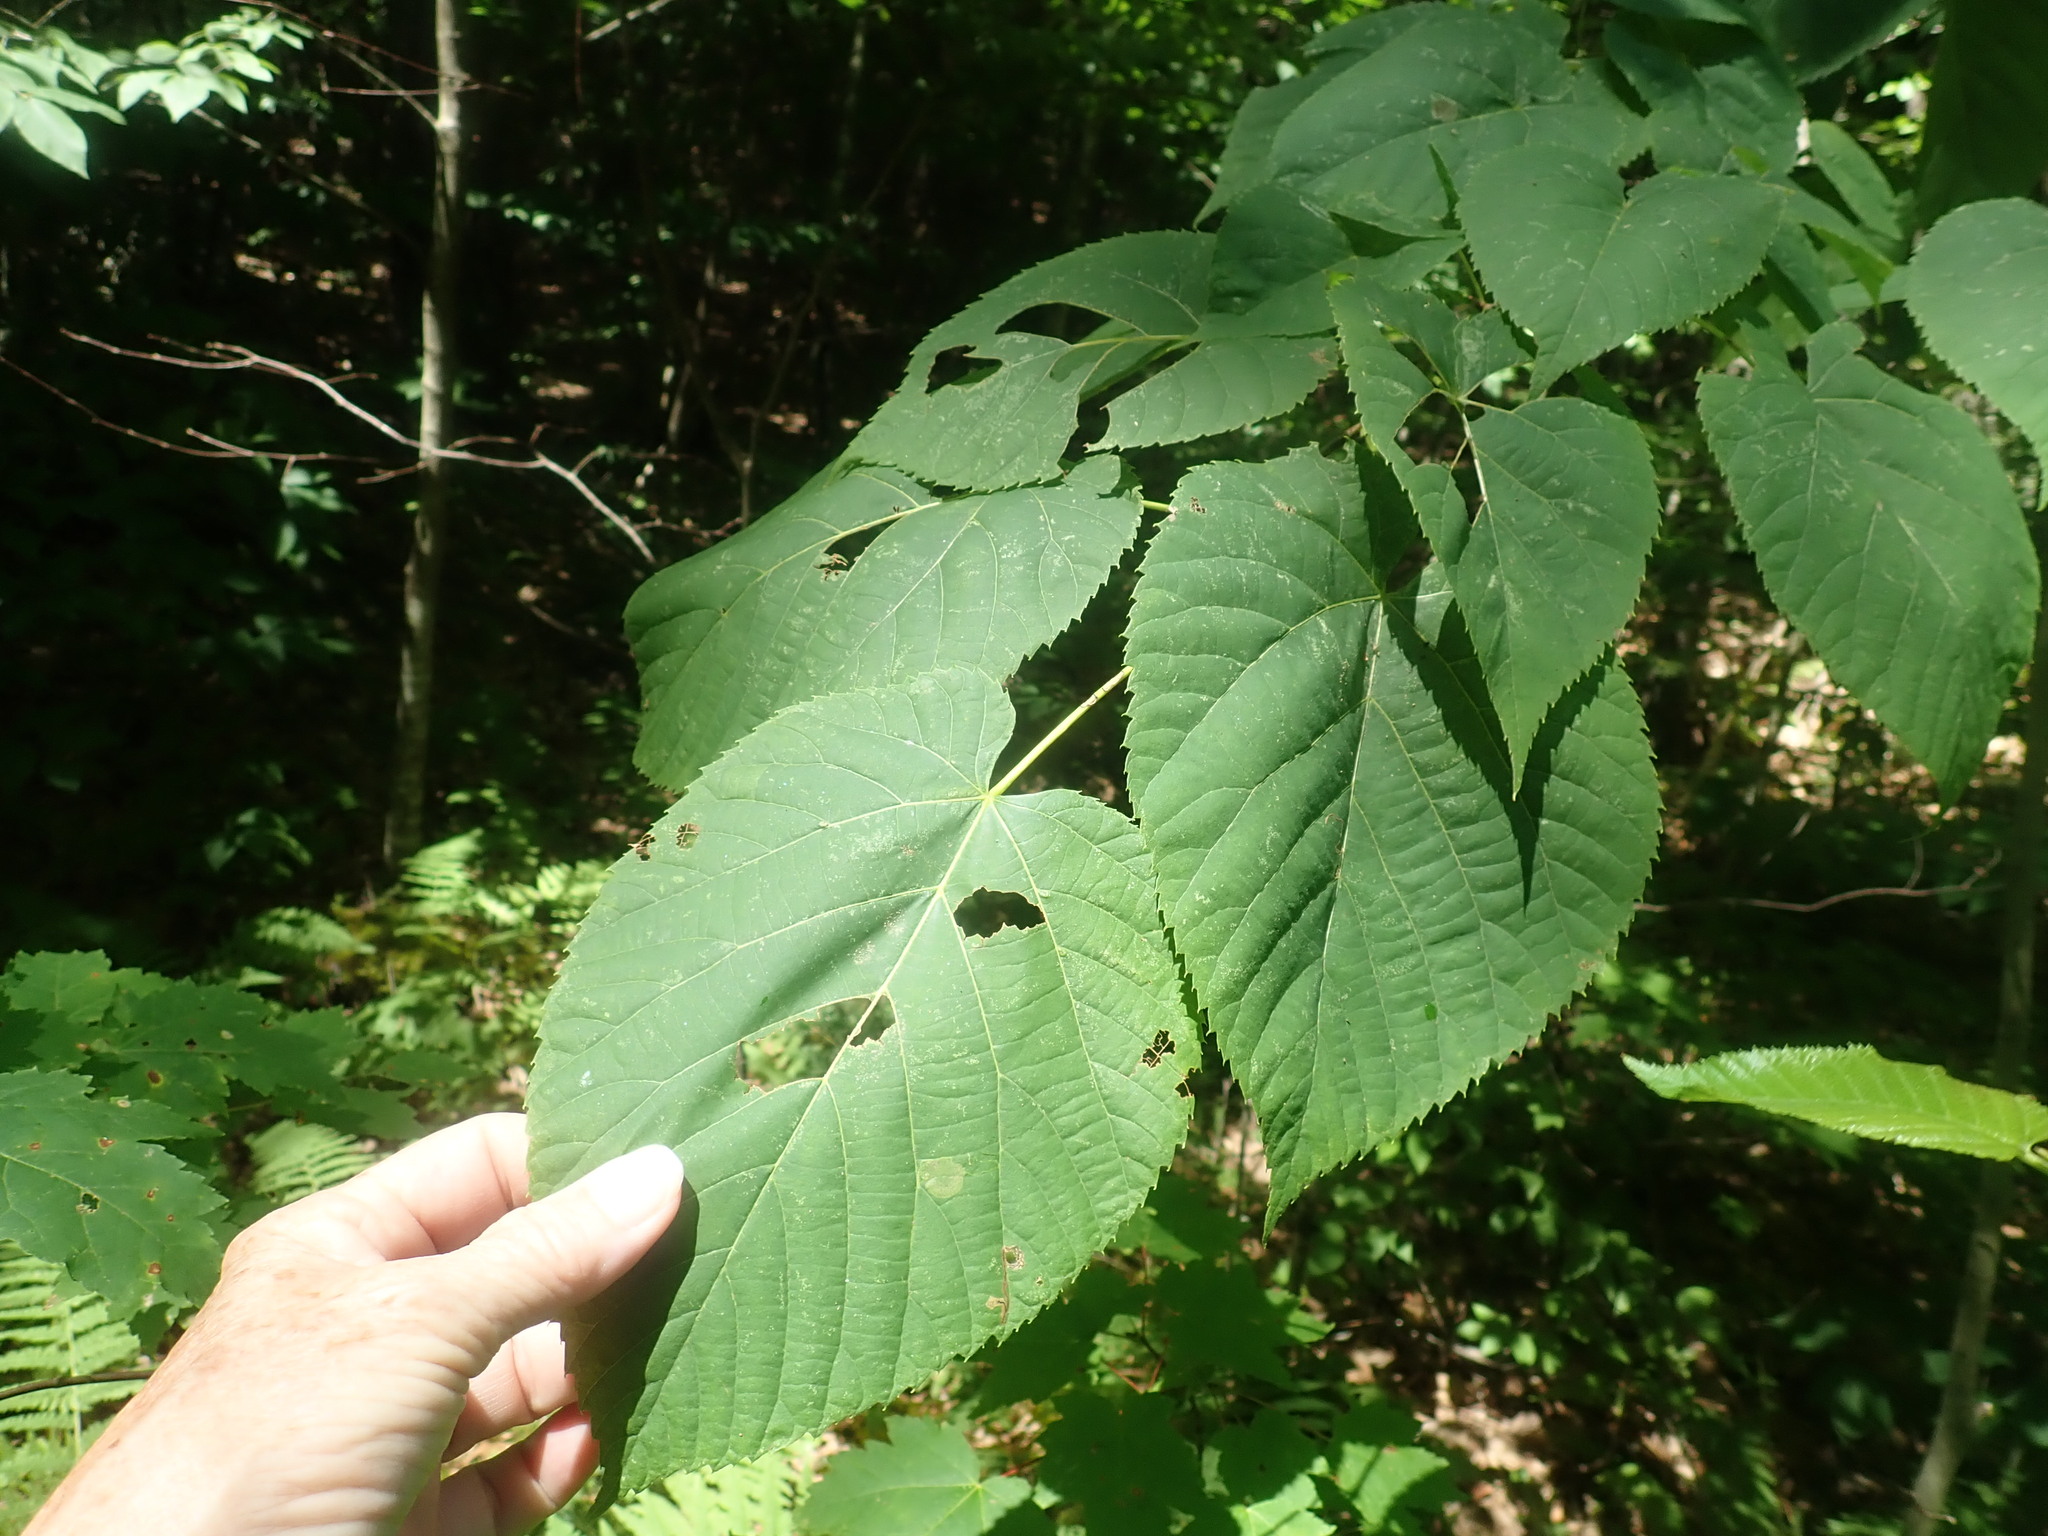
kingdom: Plantae
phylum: Tracheophyta
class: Magnoliopsida
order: Malvales
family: Malvaceae
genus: Tilia
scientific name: Tilia americana
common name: Basswood
